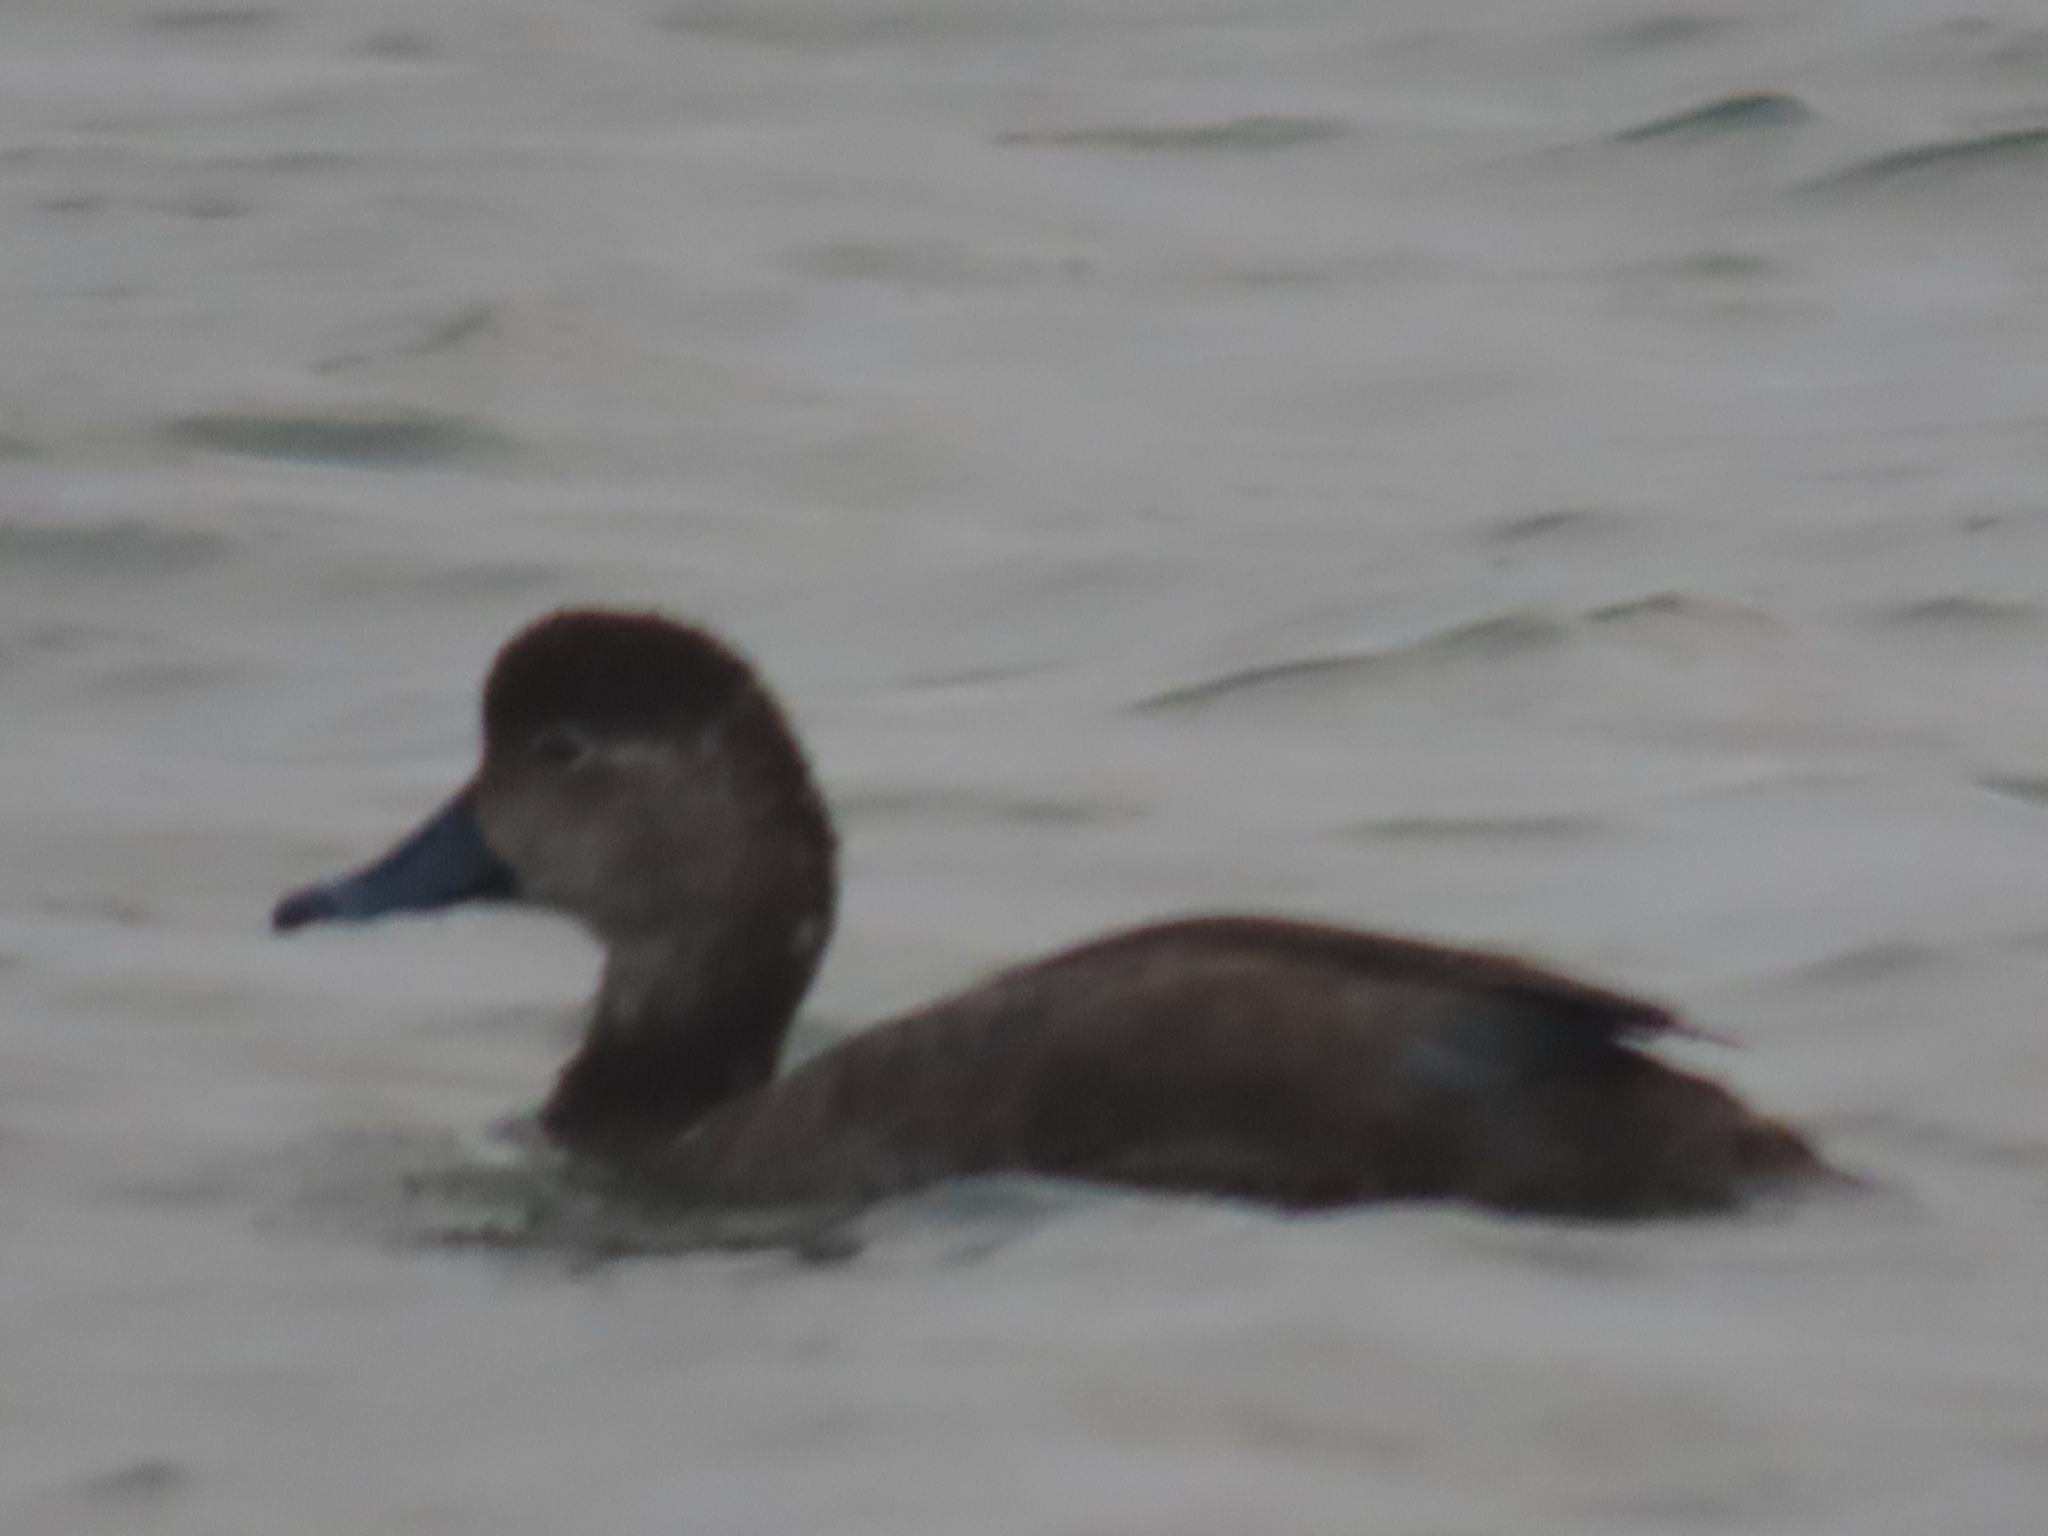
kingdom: Animalia
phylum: Chordata
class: Aves
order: Anseriformes
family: Anatidae
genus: Aythya
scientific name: Aythya americana
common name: Redhead
